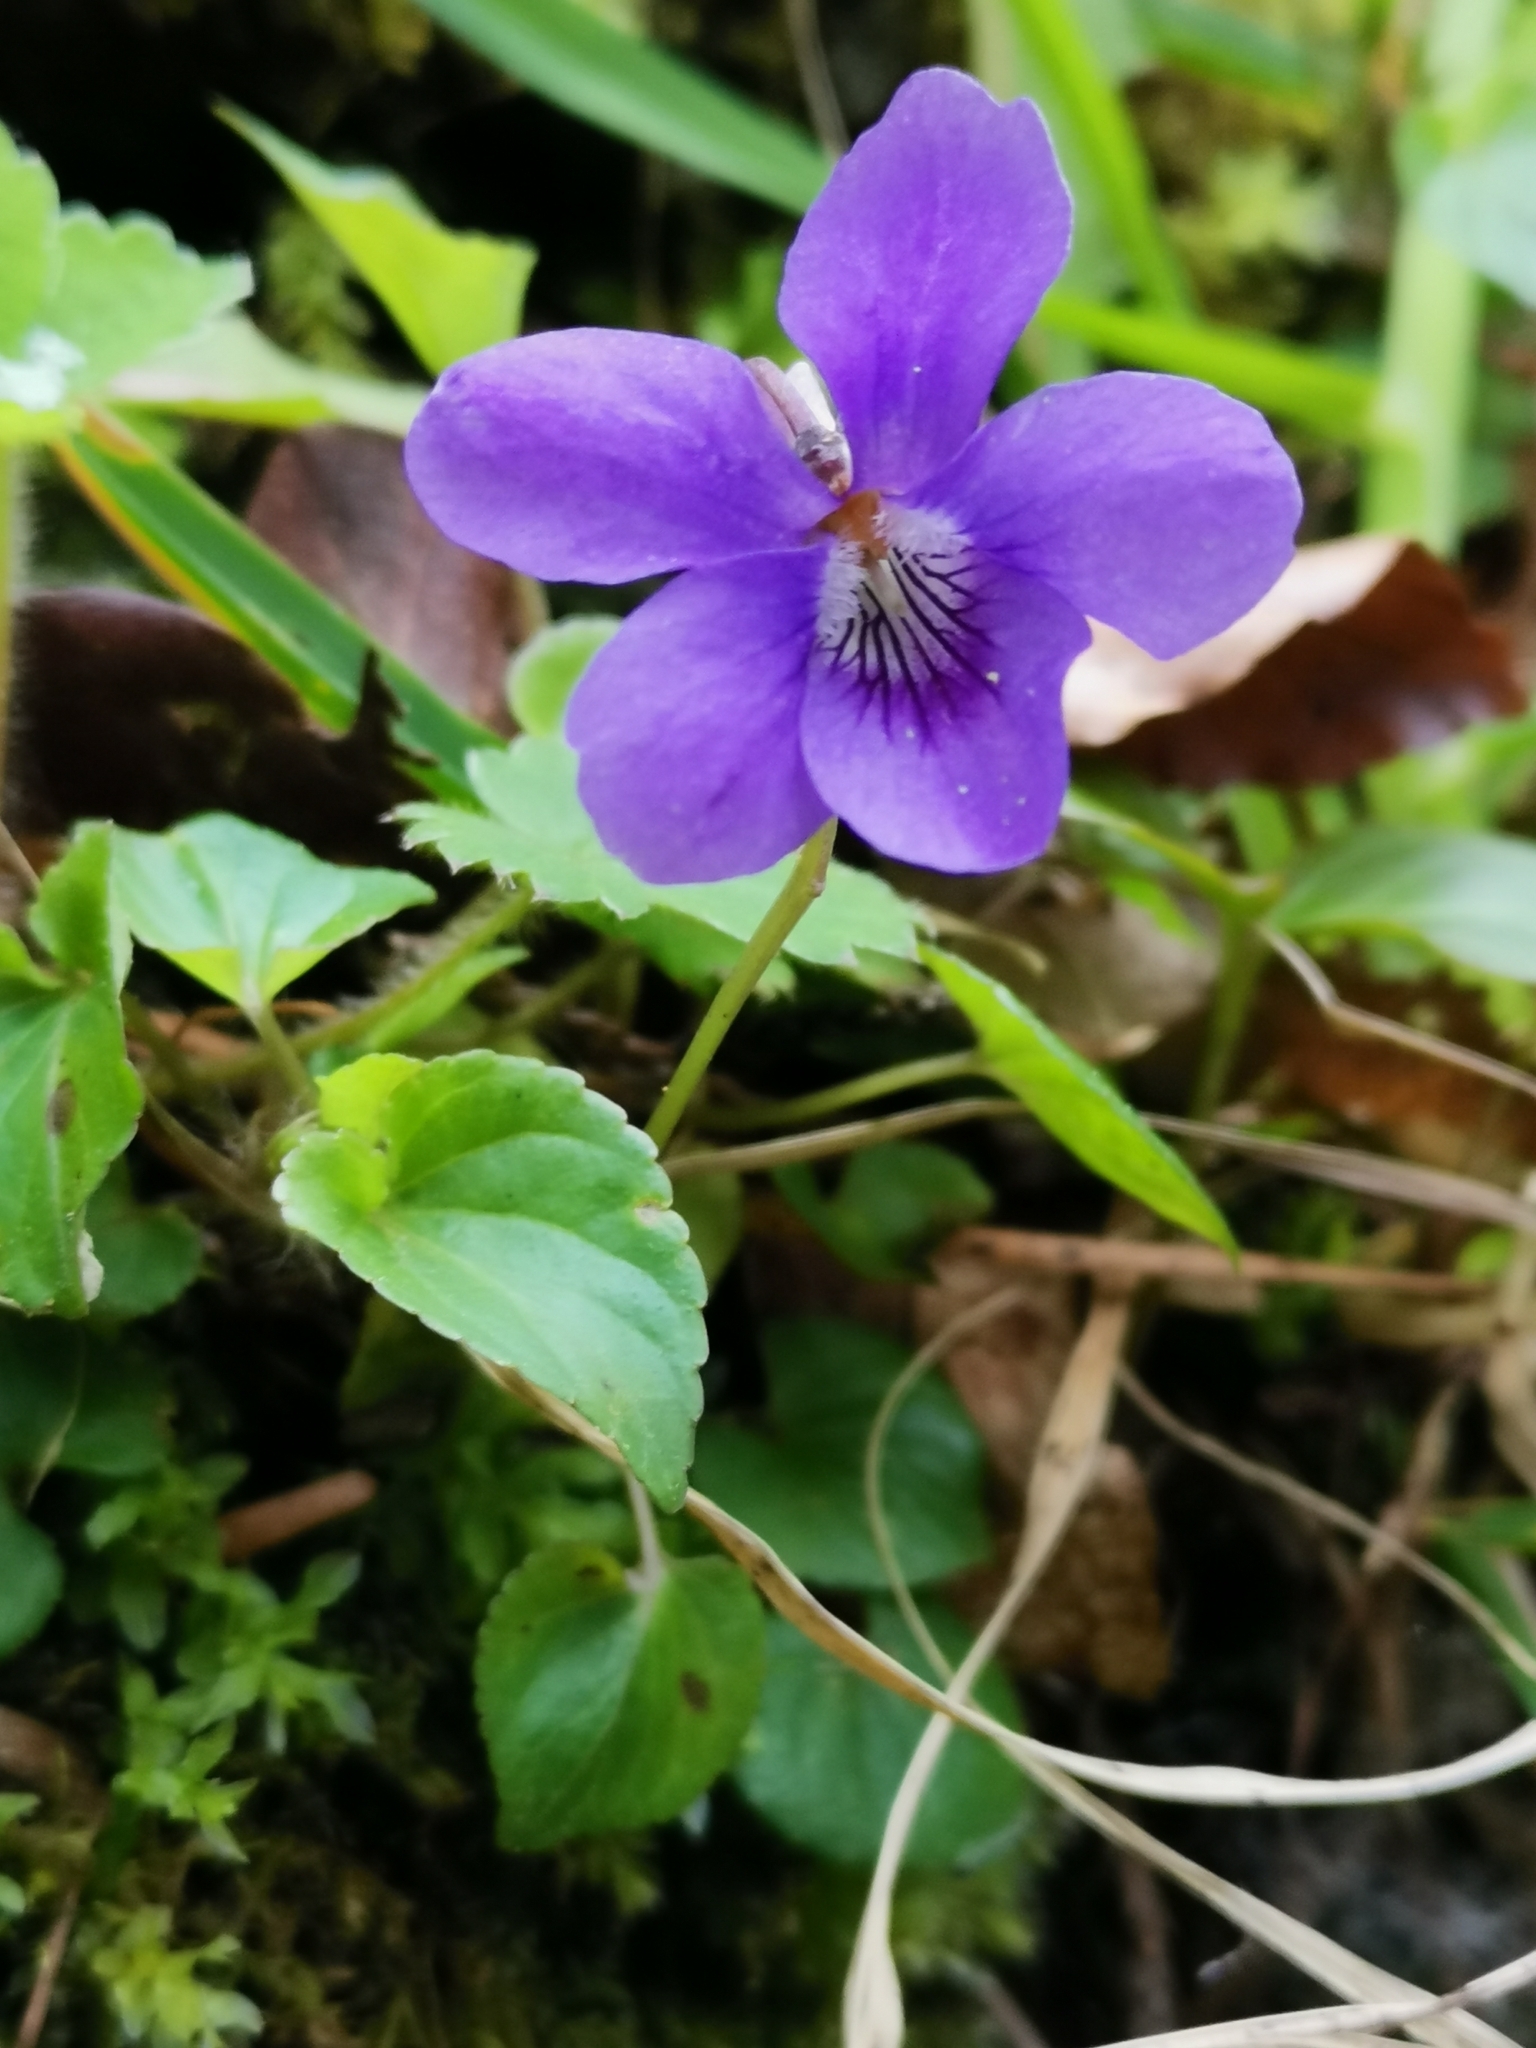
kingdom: Plantae
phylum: Tracheophyta
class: Magnoliopsida
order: Malpighiales
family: Violaceae
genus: Viola
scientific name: Viola reichenbachiana
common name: Early dog-violet
